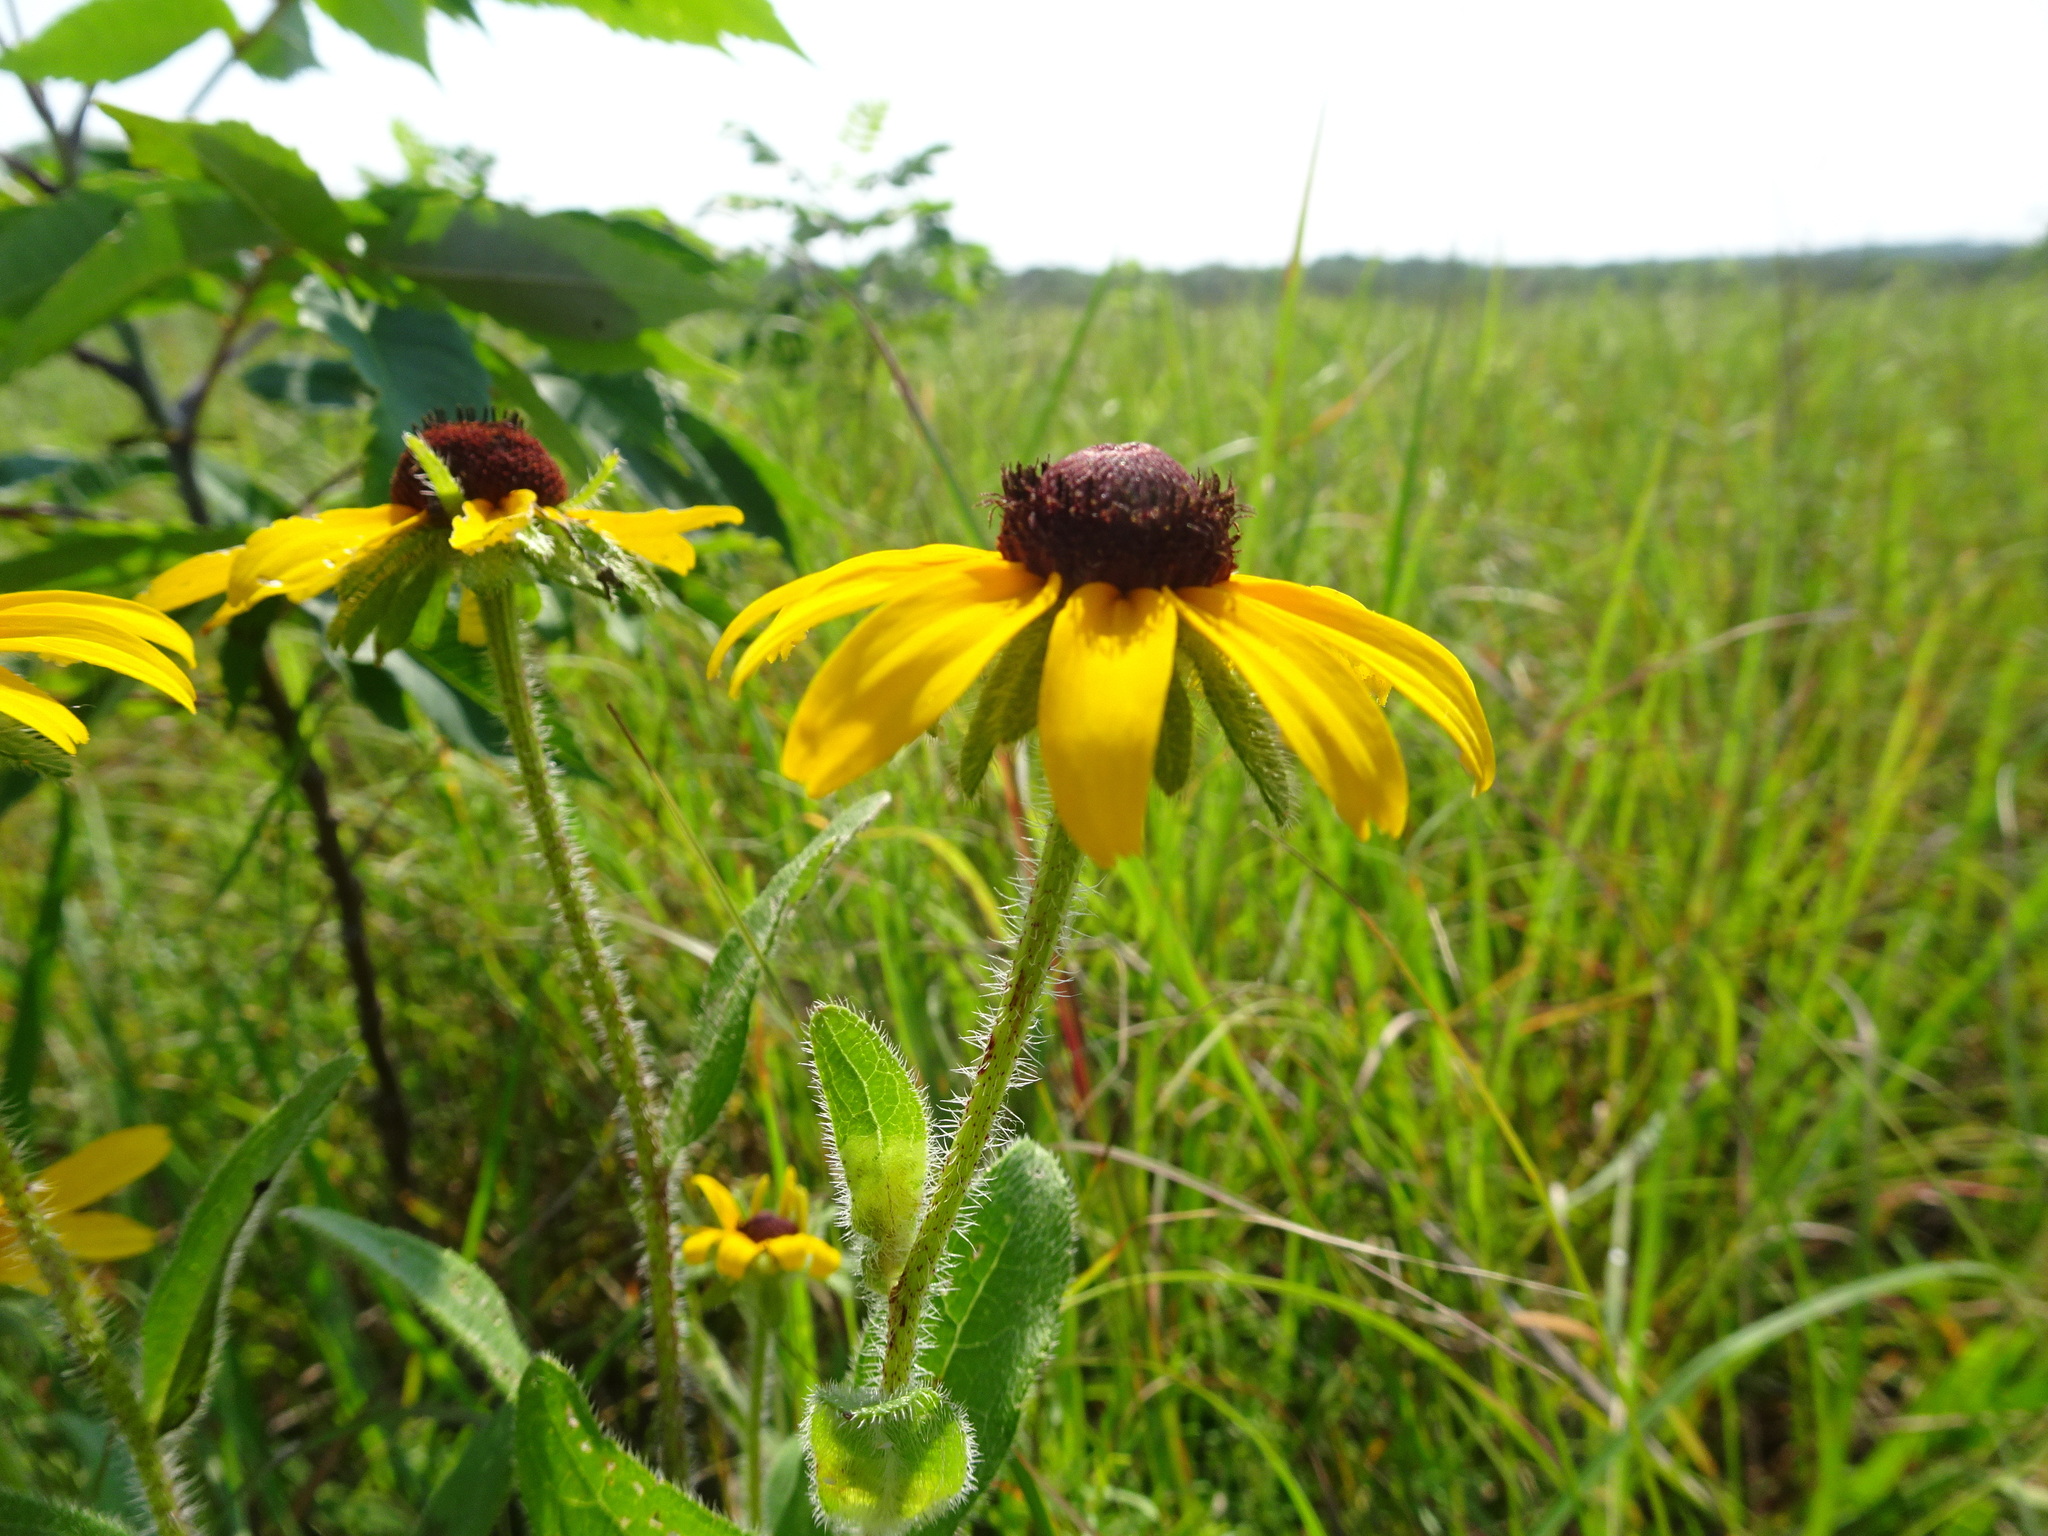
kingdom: Plantae
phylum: Tracheophyta
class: Magnoliopsida
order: Asterales
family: Asteraceae
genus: Rudbeckia
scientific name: Rudbeckia hirta
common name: Black-eyed-susan
